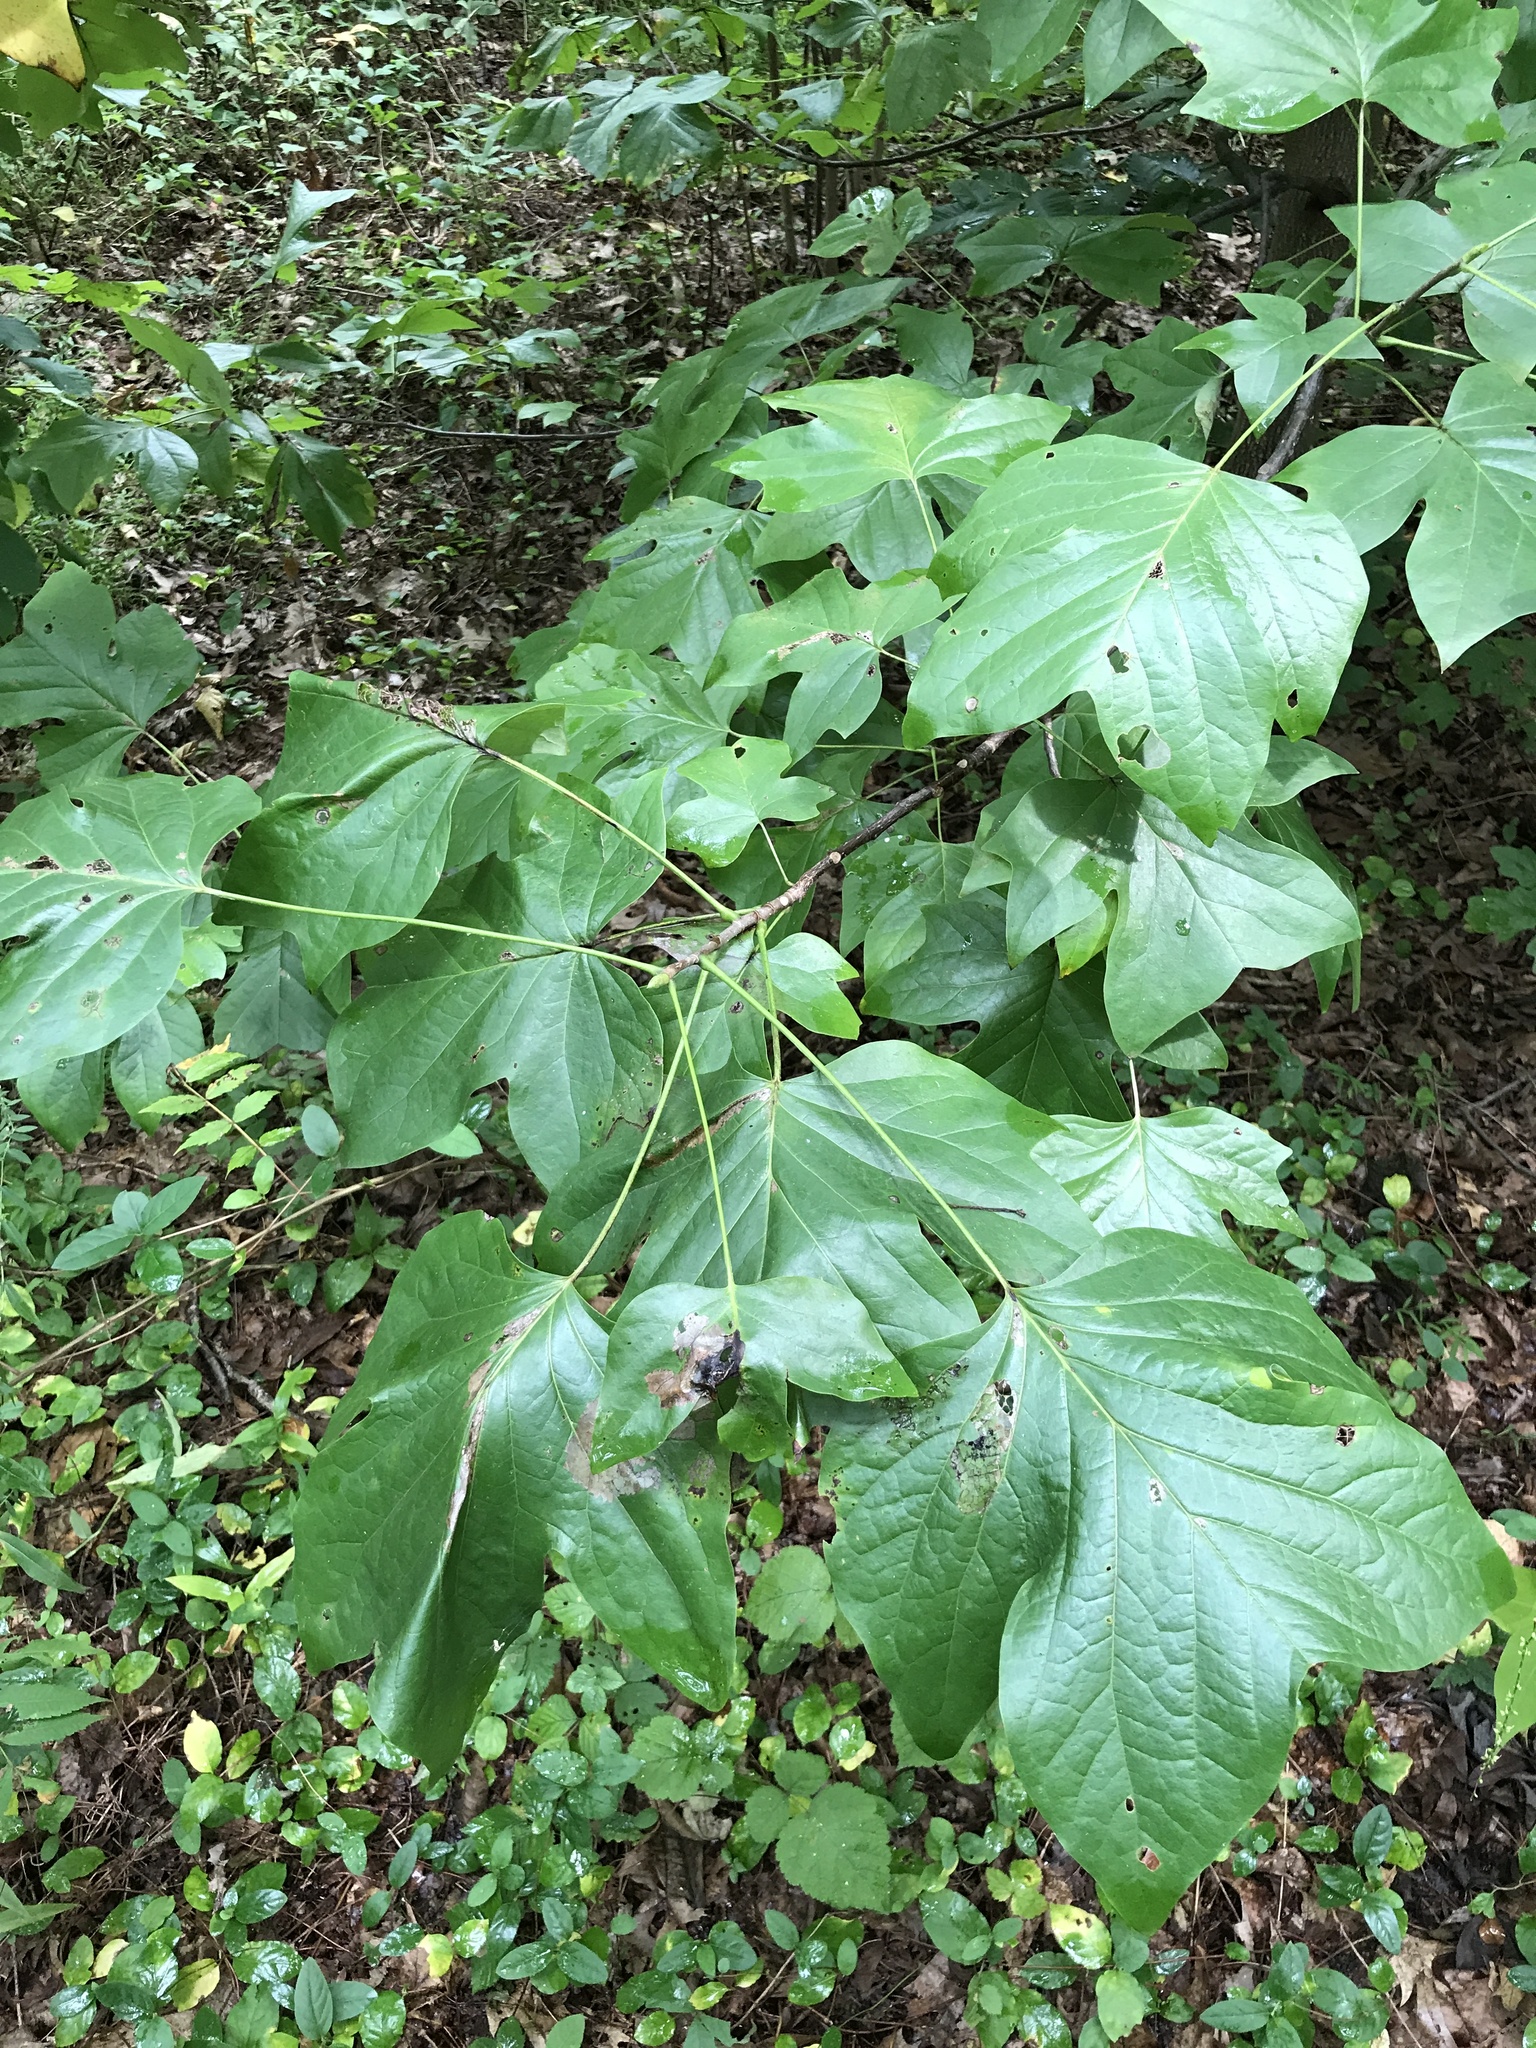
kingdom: Plantae
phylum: Tracheophyta
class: Magnoliopsida
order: Magnoliales
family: Magnoliaceae
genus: Liriodendron
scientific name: Liriodendron tulipifera
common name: Tulip tree
